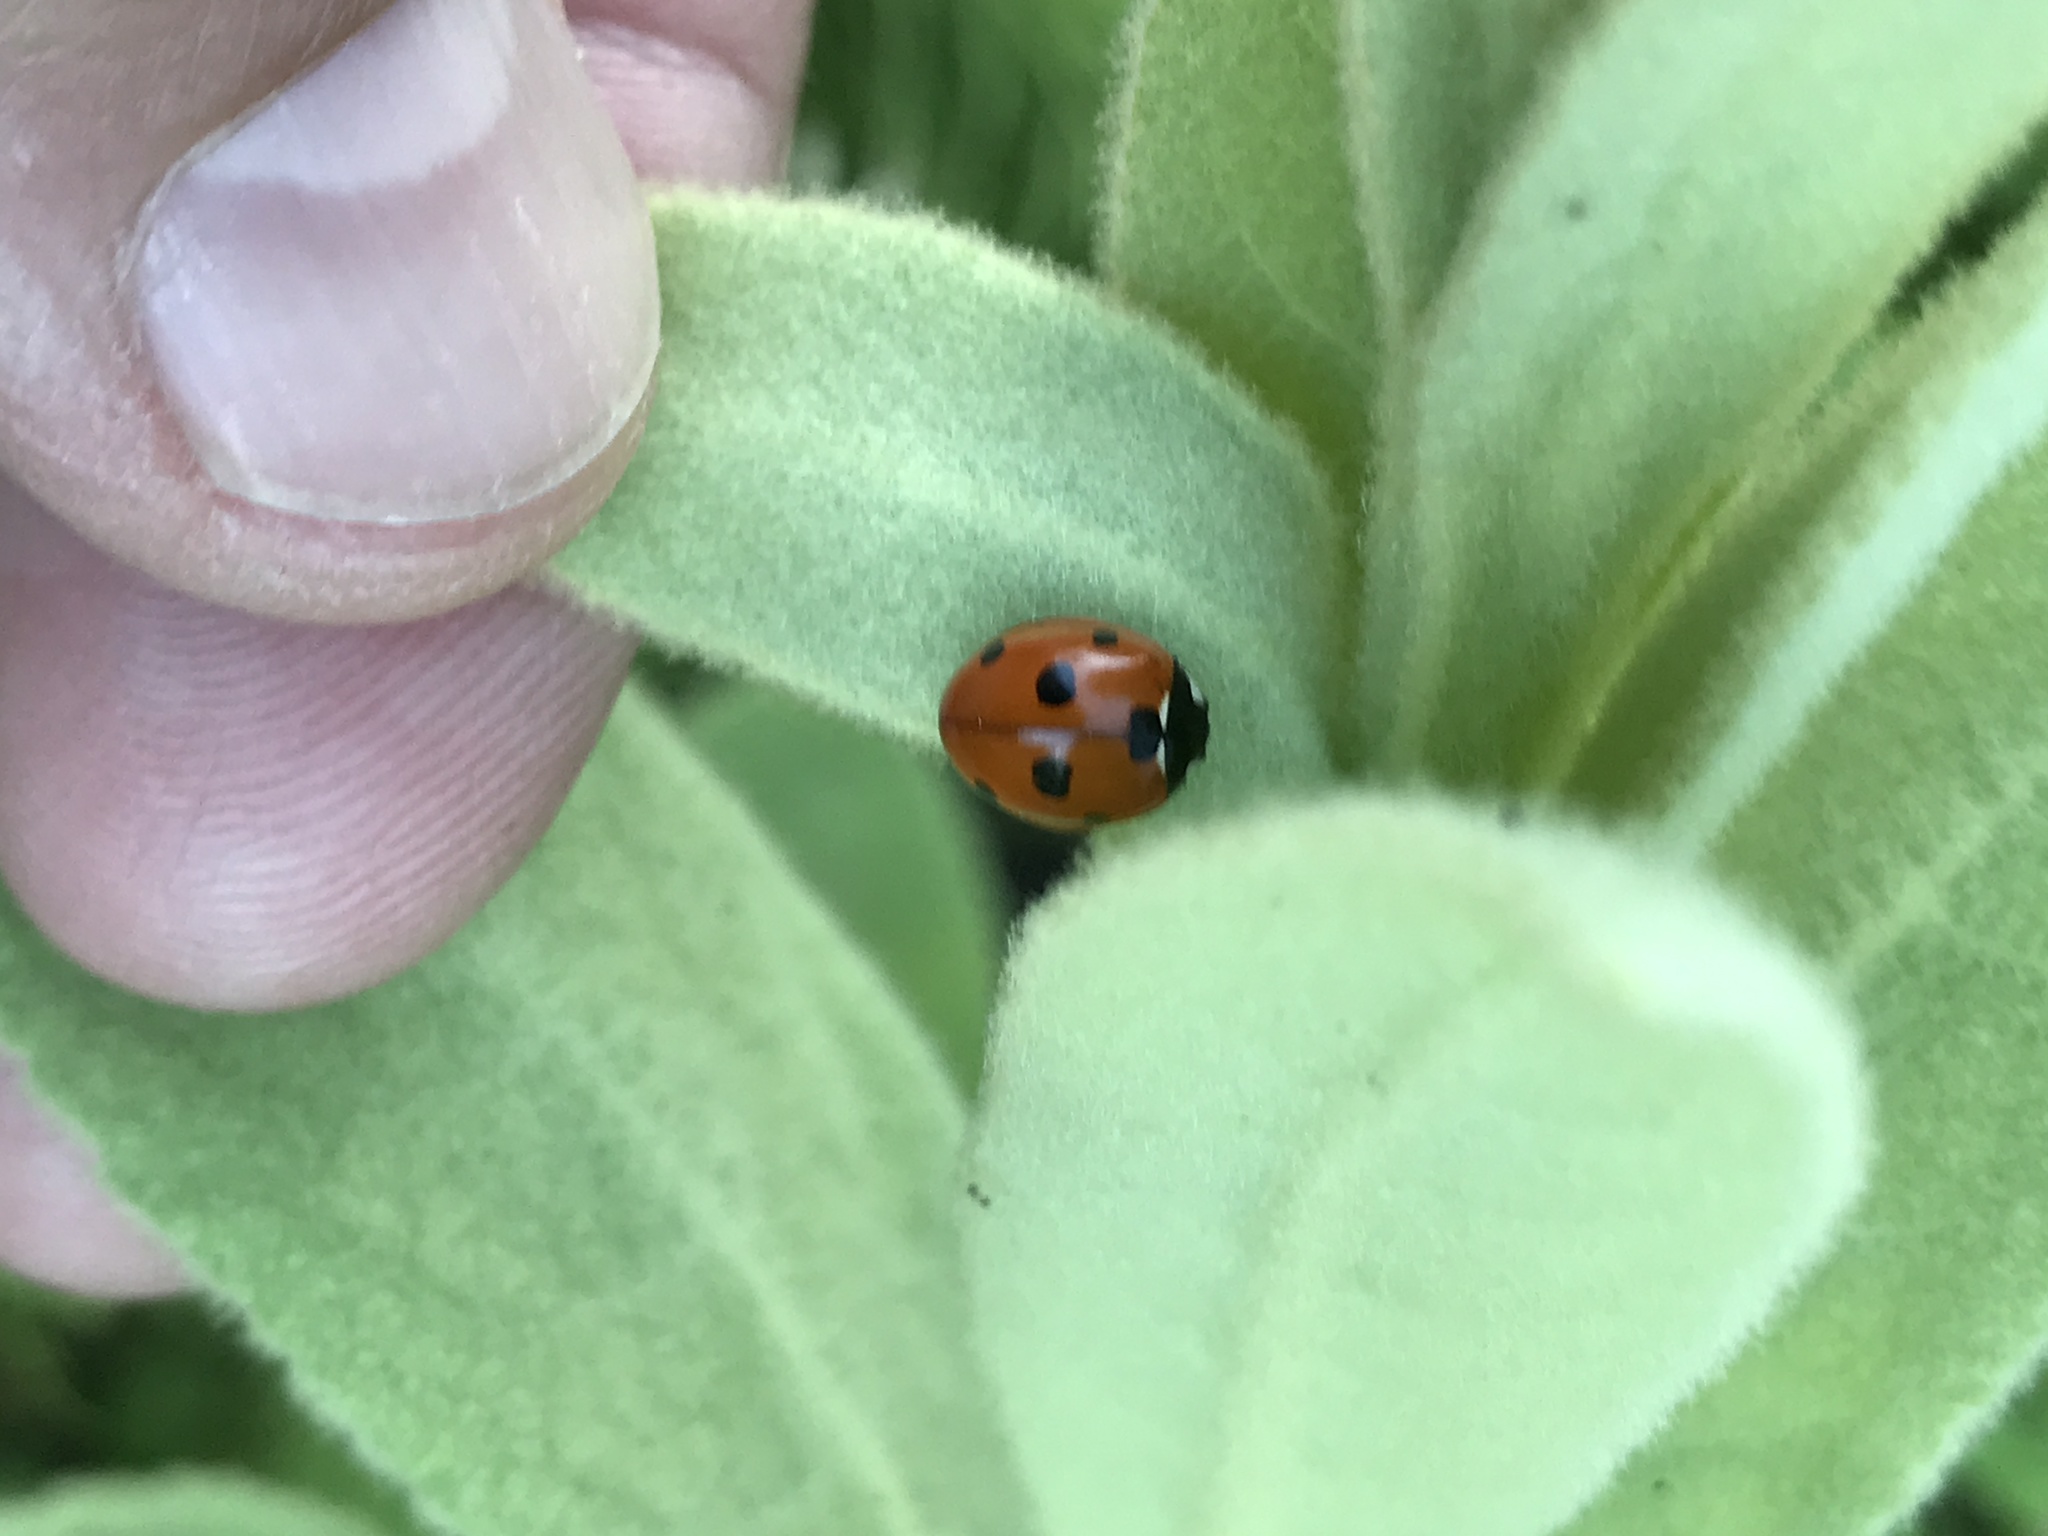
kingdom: Animalia
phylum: Arthropoda
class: Insecta
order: Coleoptera
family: Coccinellidae
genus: Coccinella
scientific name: Coccinella septempunctata
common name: Sevenspotted lady beetle
